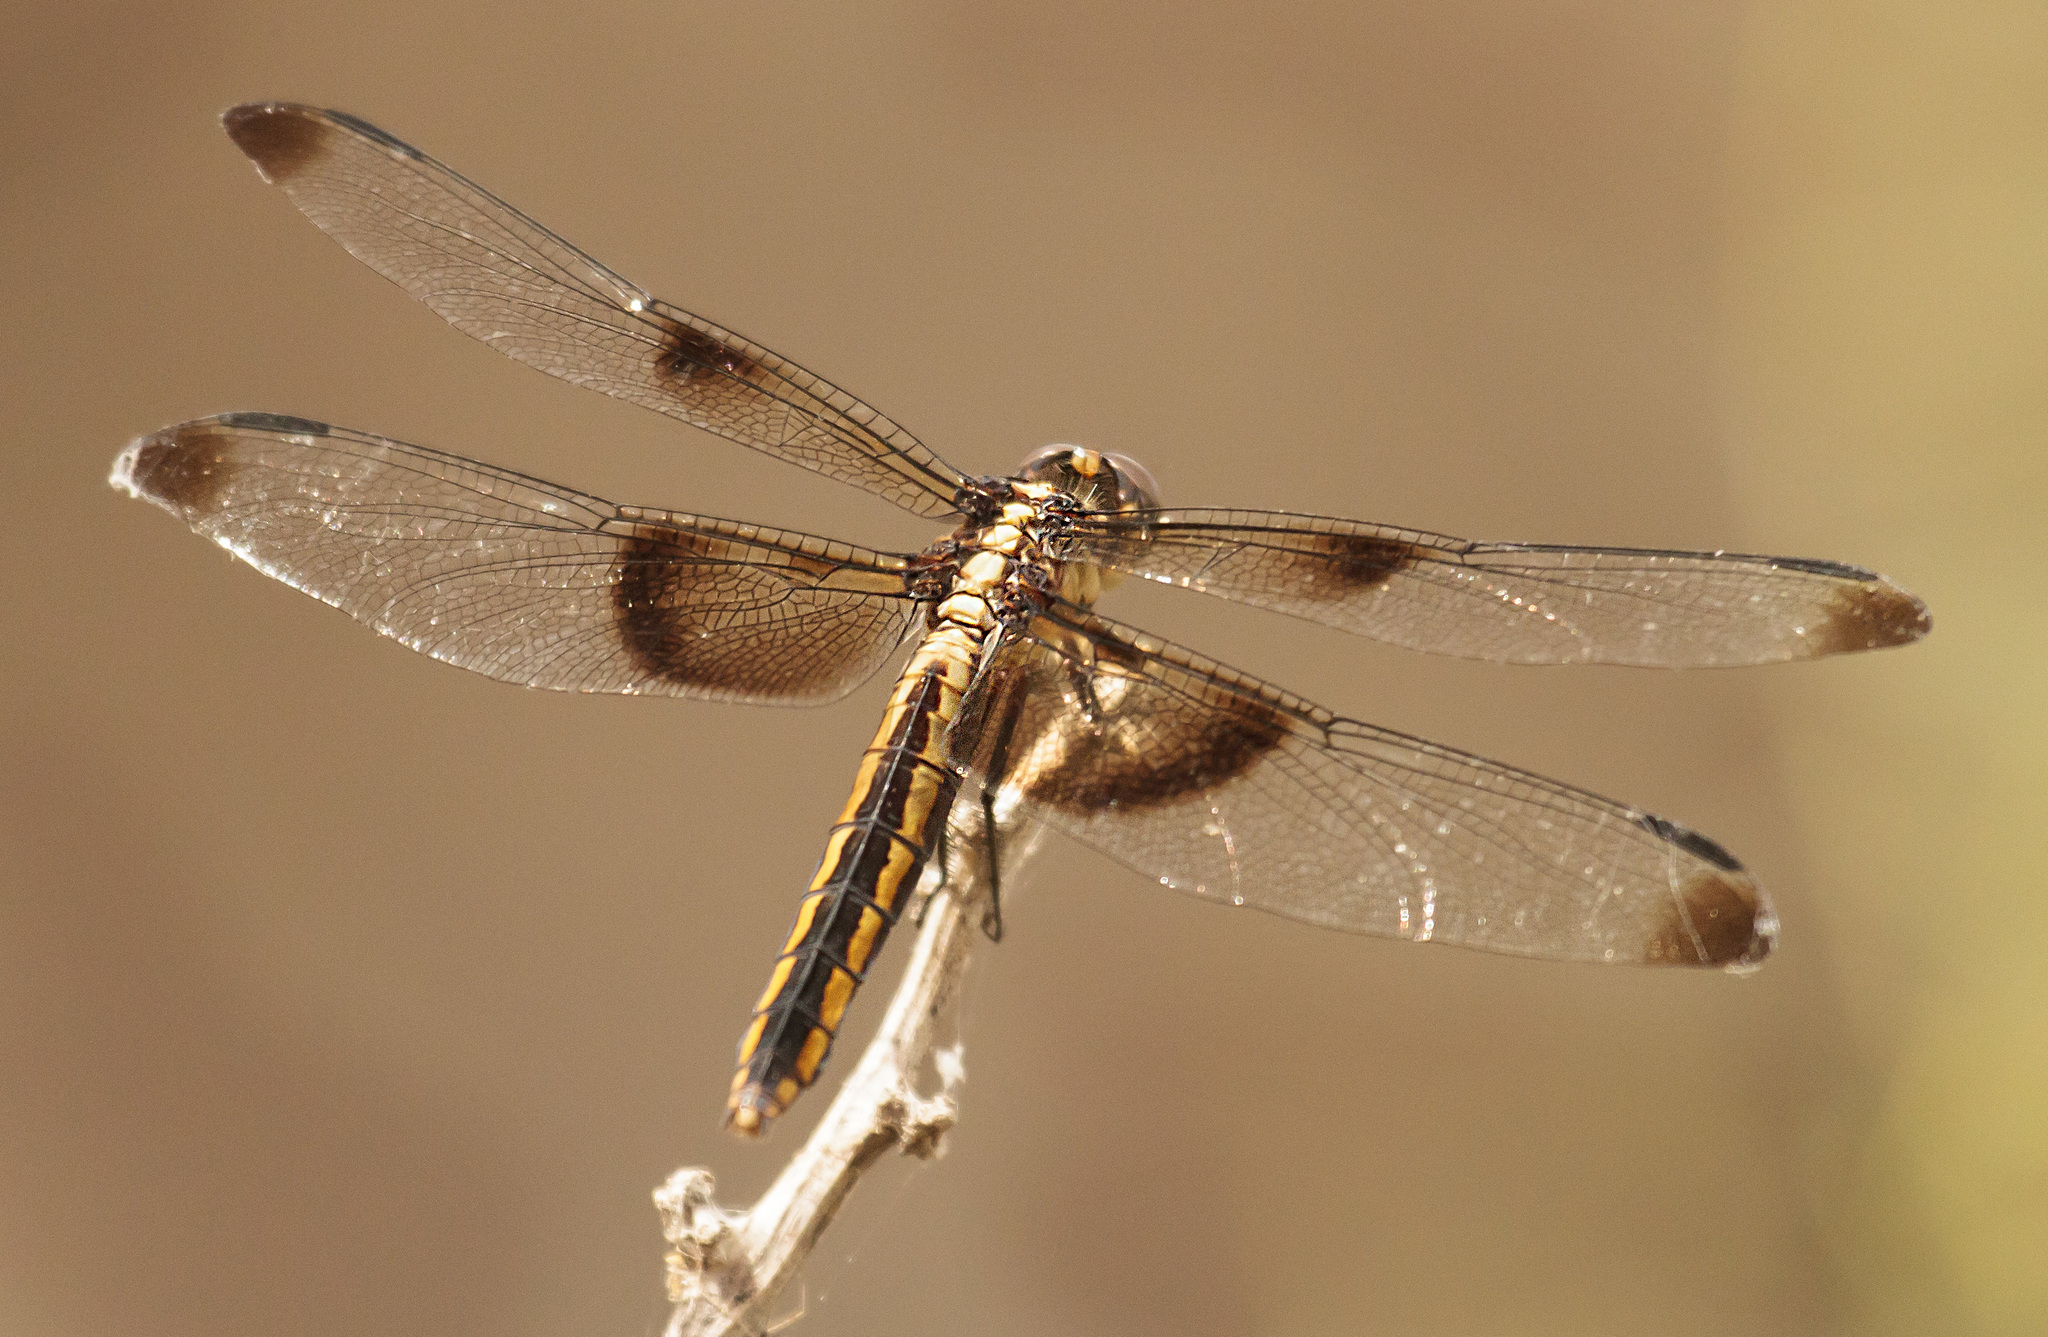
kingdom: Animalia
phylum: Arthropoda
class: Insecta
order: Odonata
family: Libellulidae
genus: Libellula
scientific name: Libellula luctuosa
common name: Widow skimmer
